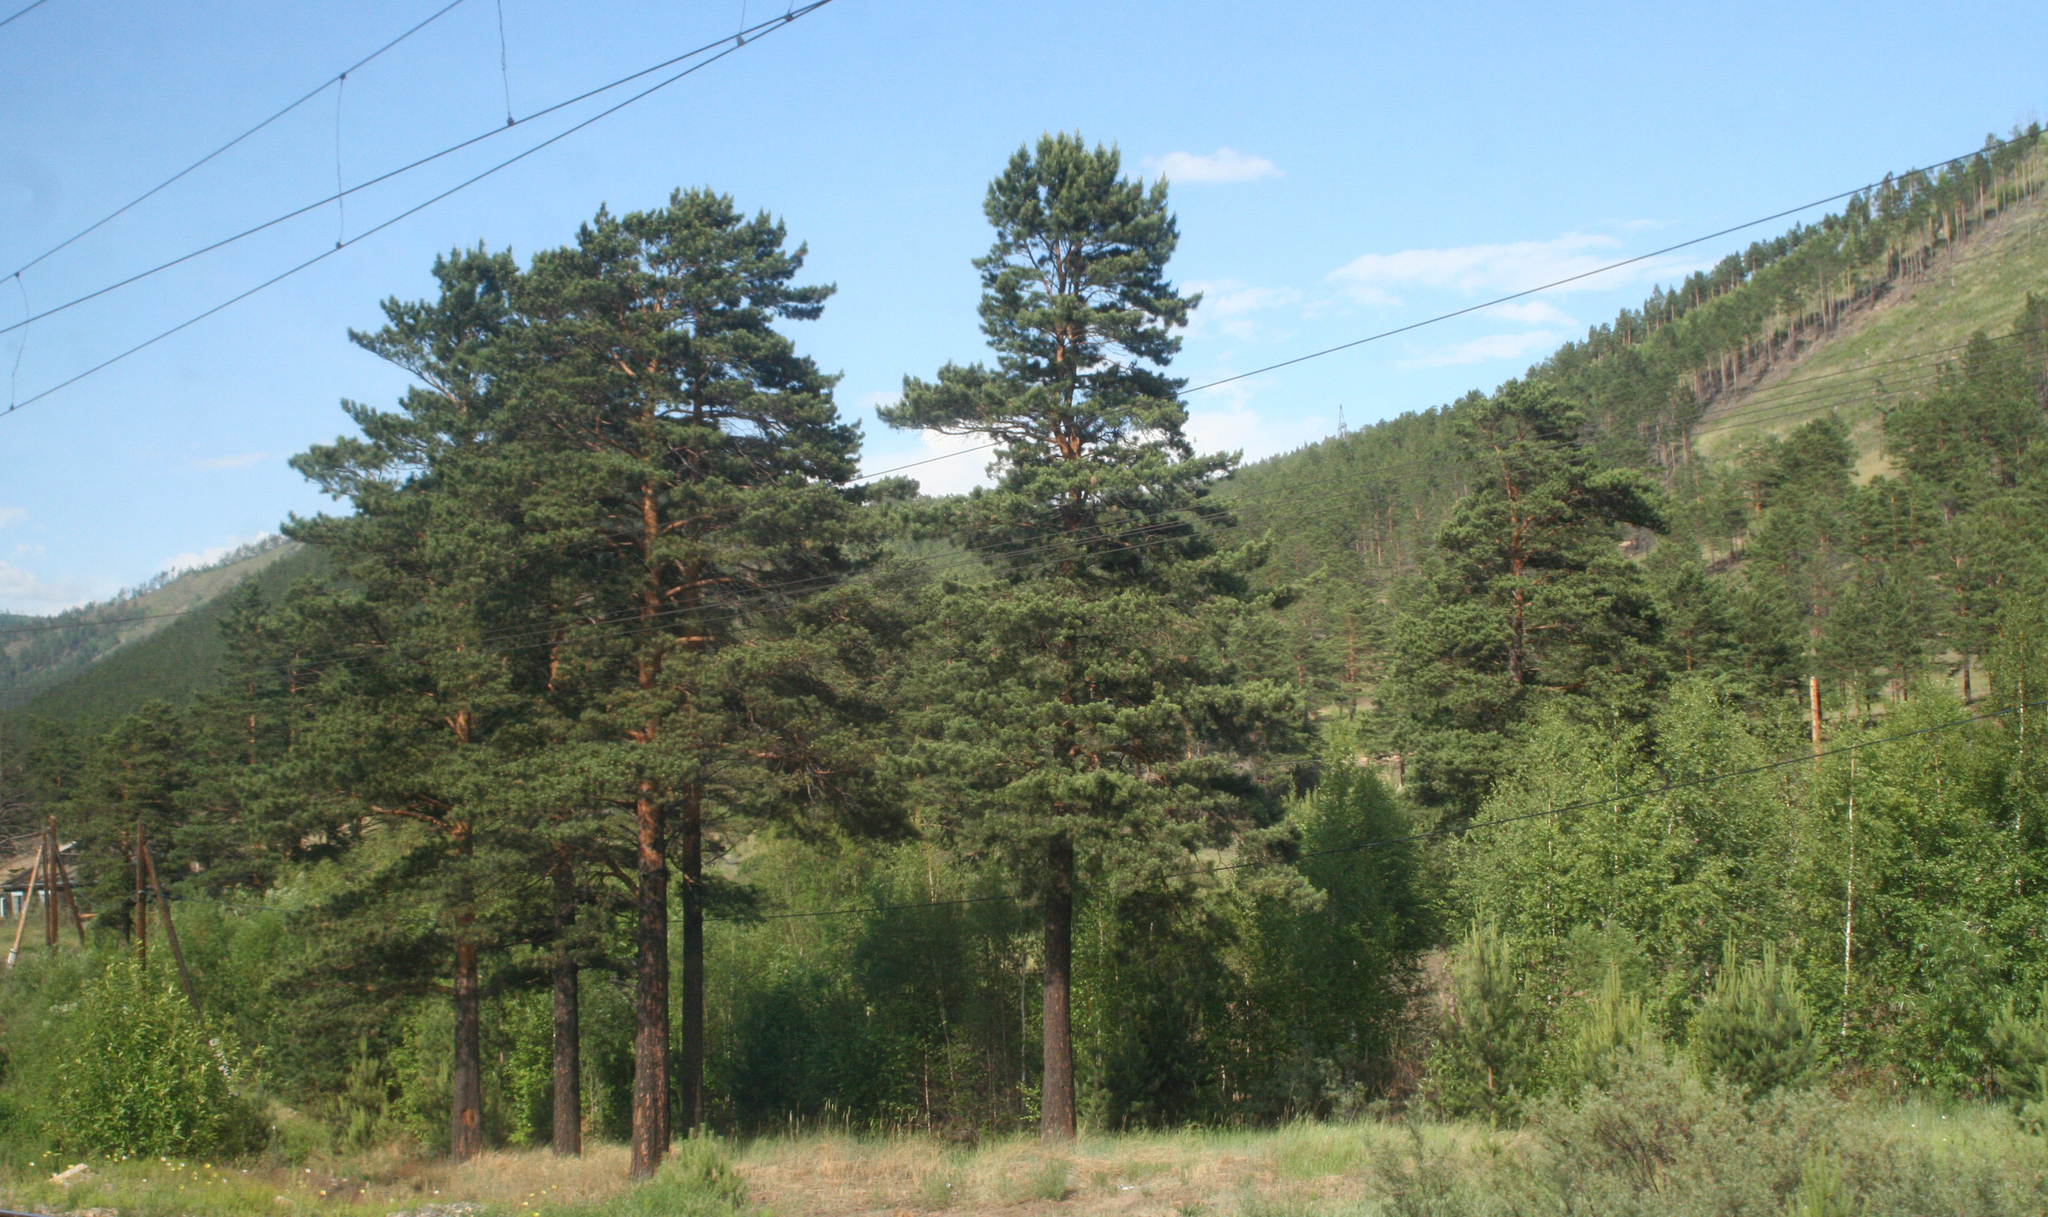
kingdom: Plantae
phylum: Tracheophyta
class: Pinopsida
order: Pinales
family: Pinaceae
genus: Pinus
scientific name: Pinus sylvestris
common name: Scots pine
